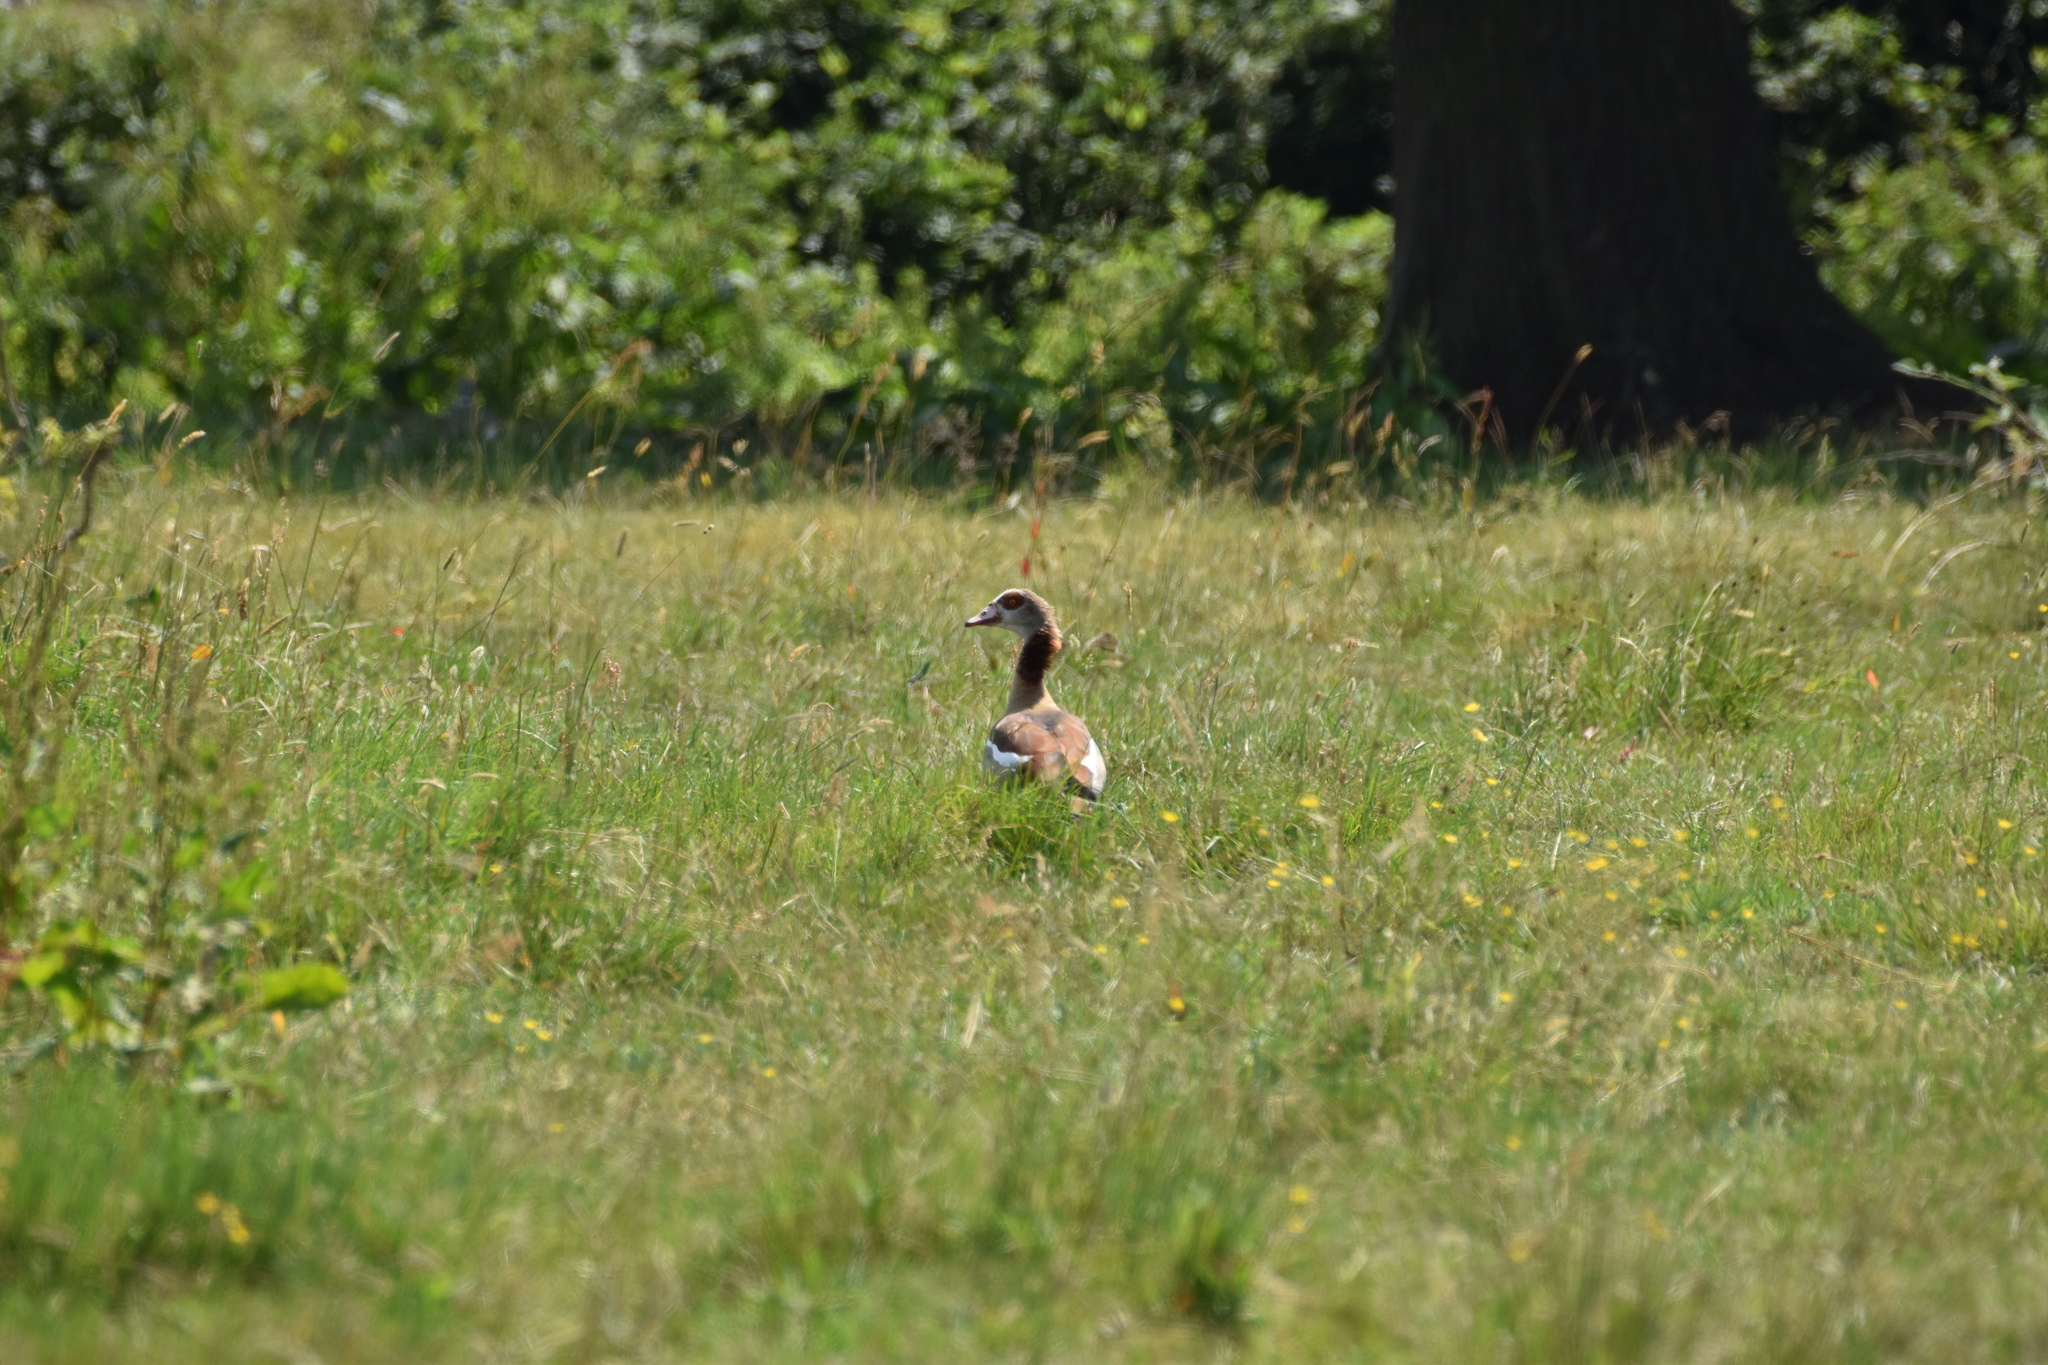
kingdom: Animalia
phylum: Chordata
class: Aves
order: Anseriformes
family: Anatidae
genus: Alopochen
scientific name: Alopochen aegyptiaca
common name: Egyptian goose
